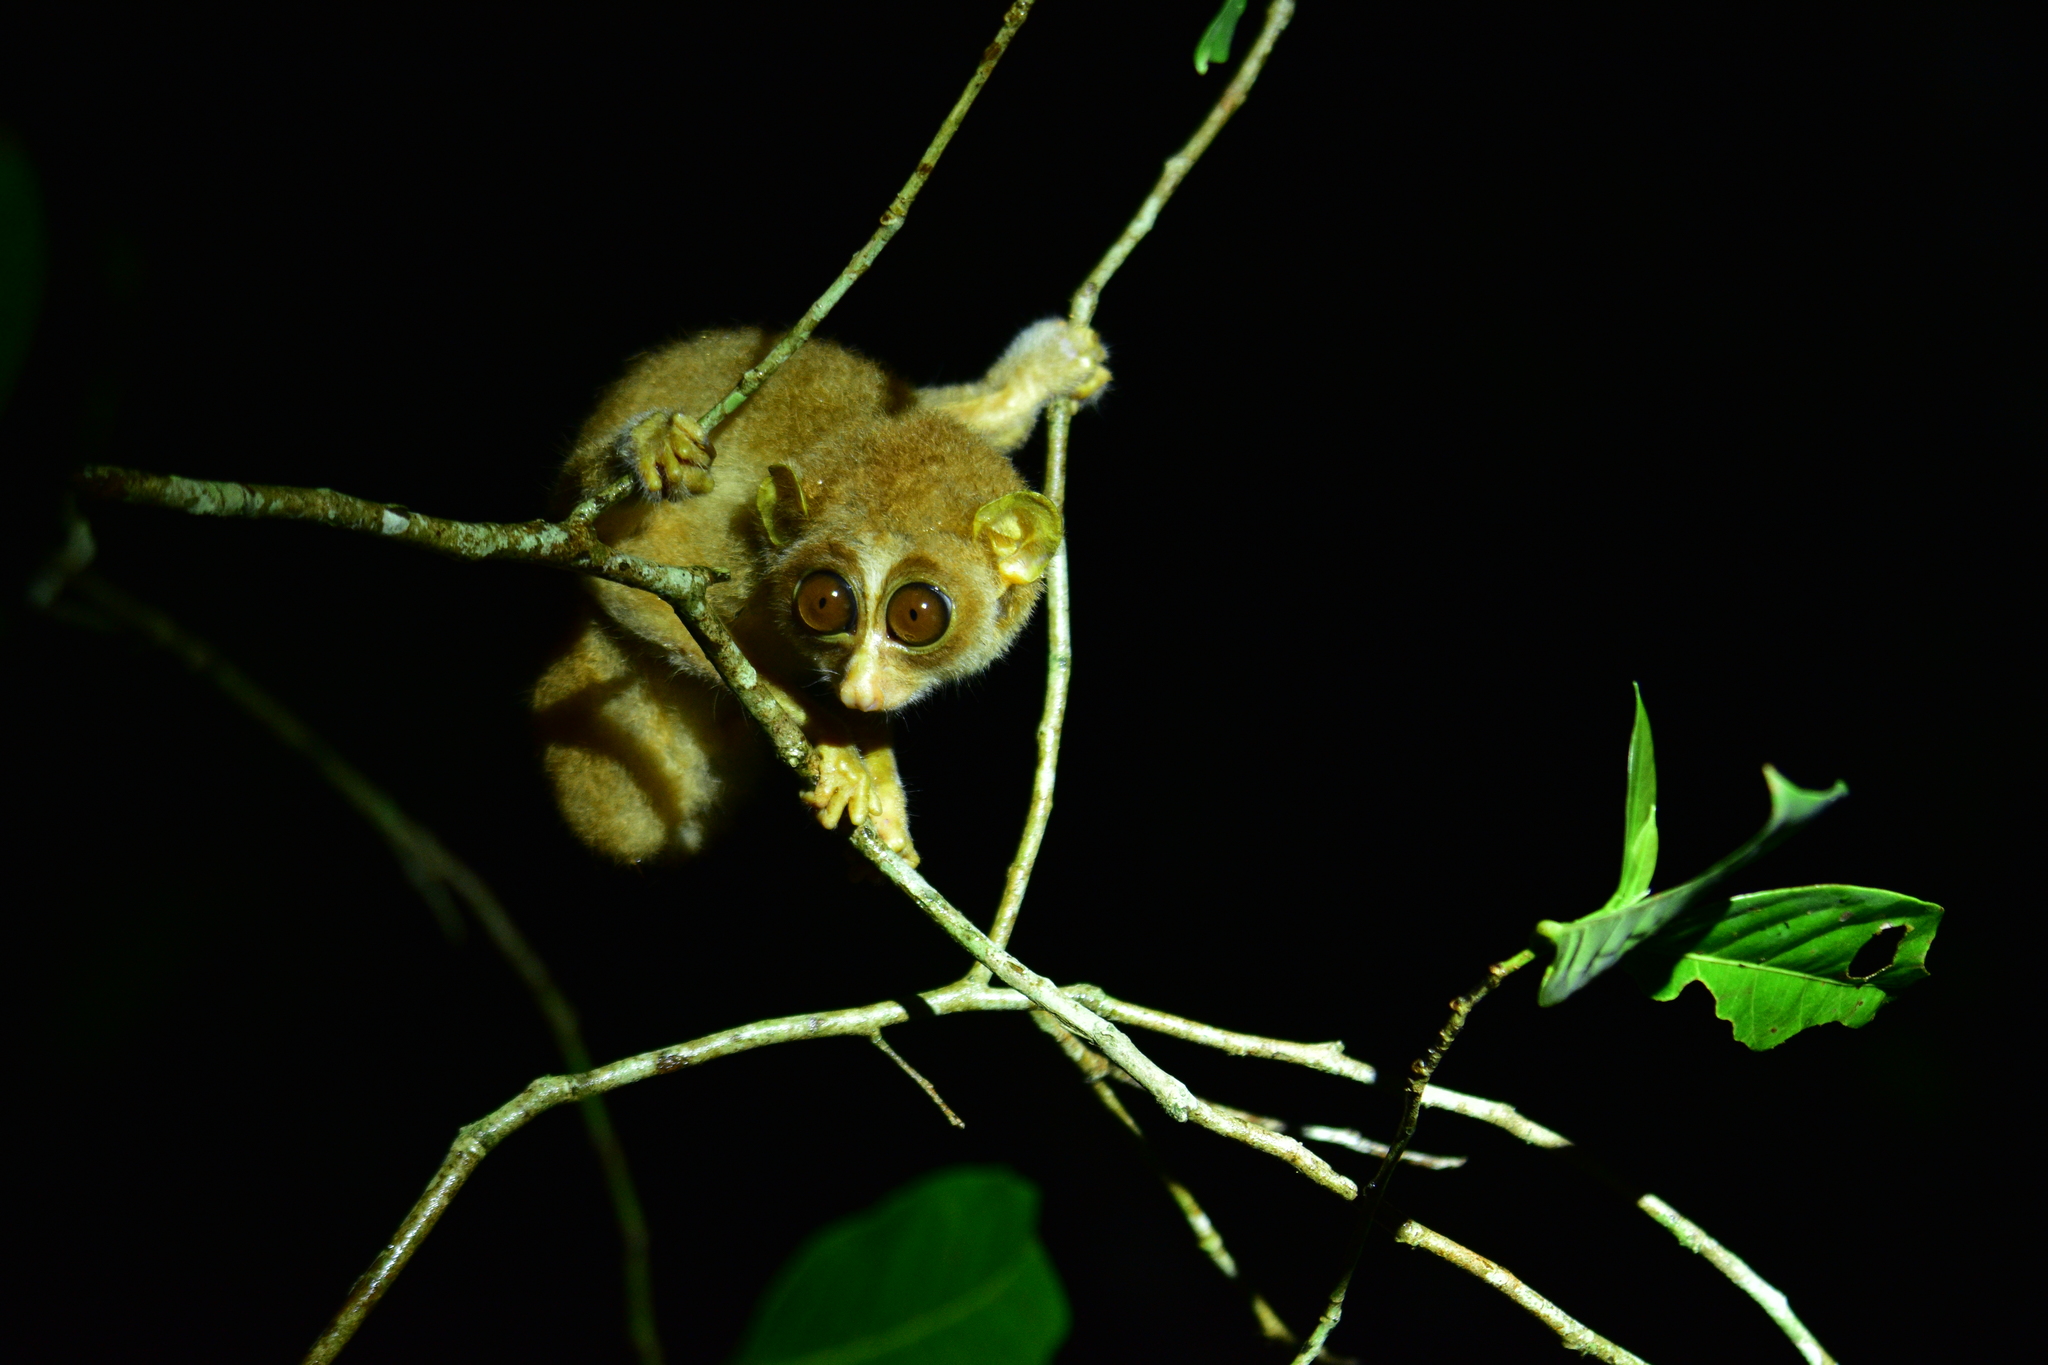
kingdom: Animalia
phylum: Chordata
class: Mammalia
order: Primates
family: Lorisidae
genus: Loris
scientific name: Loris lydekkerianus
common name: Gray slender loris
